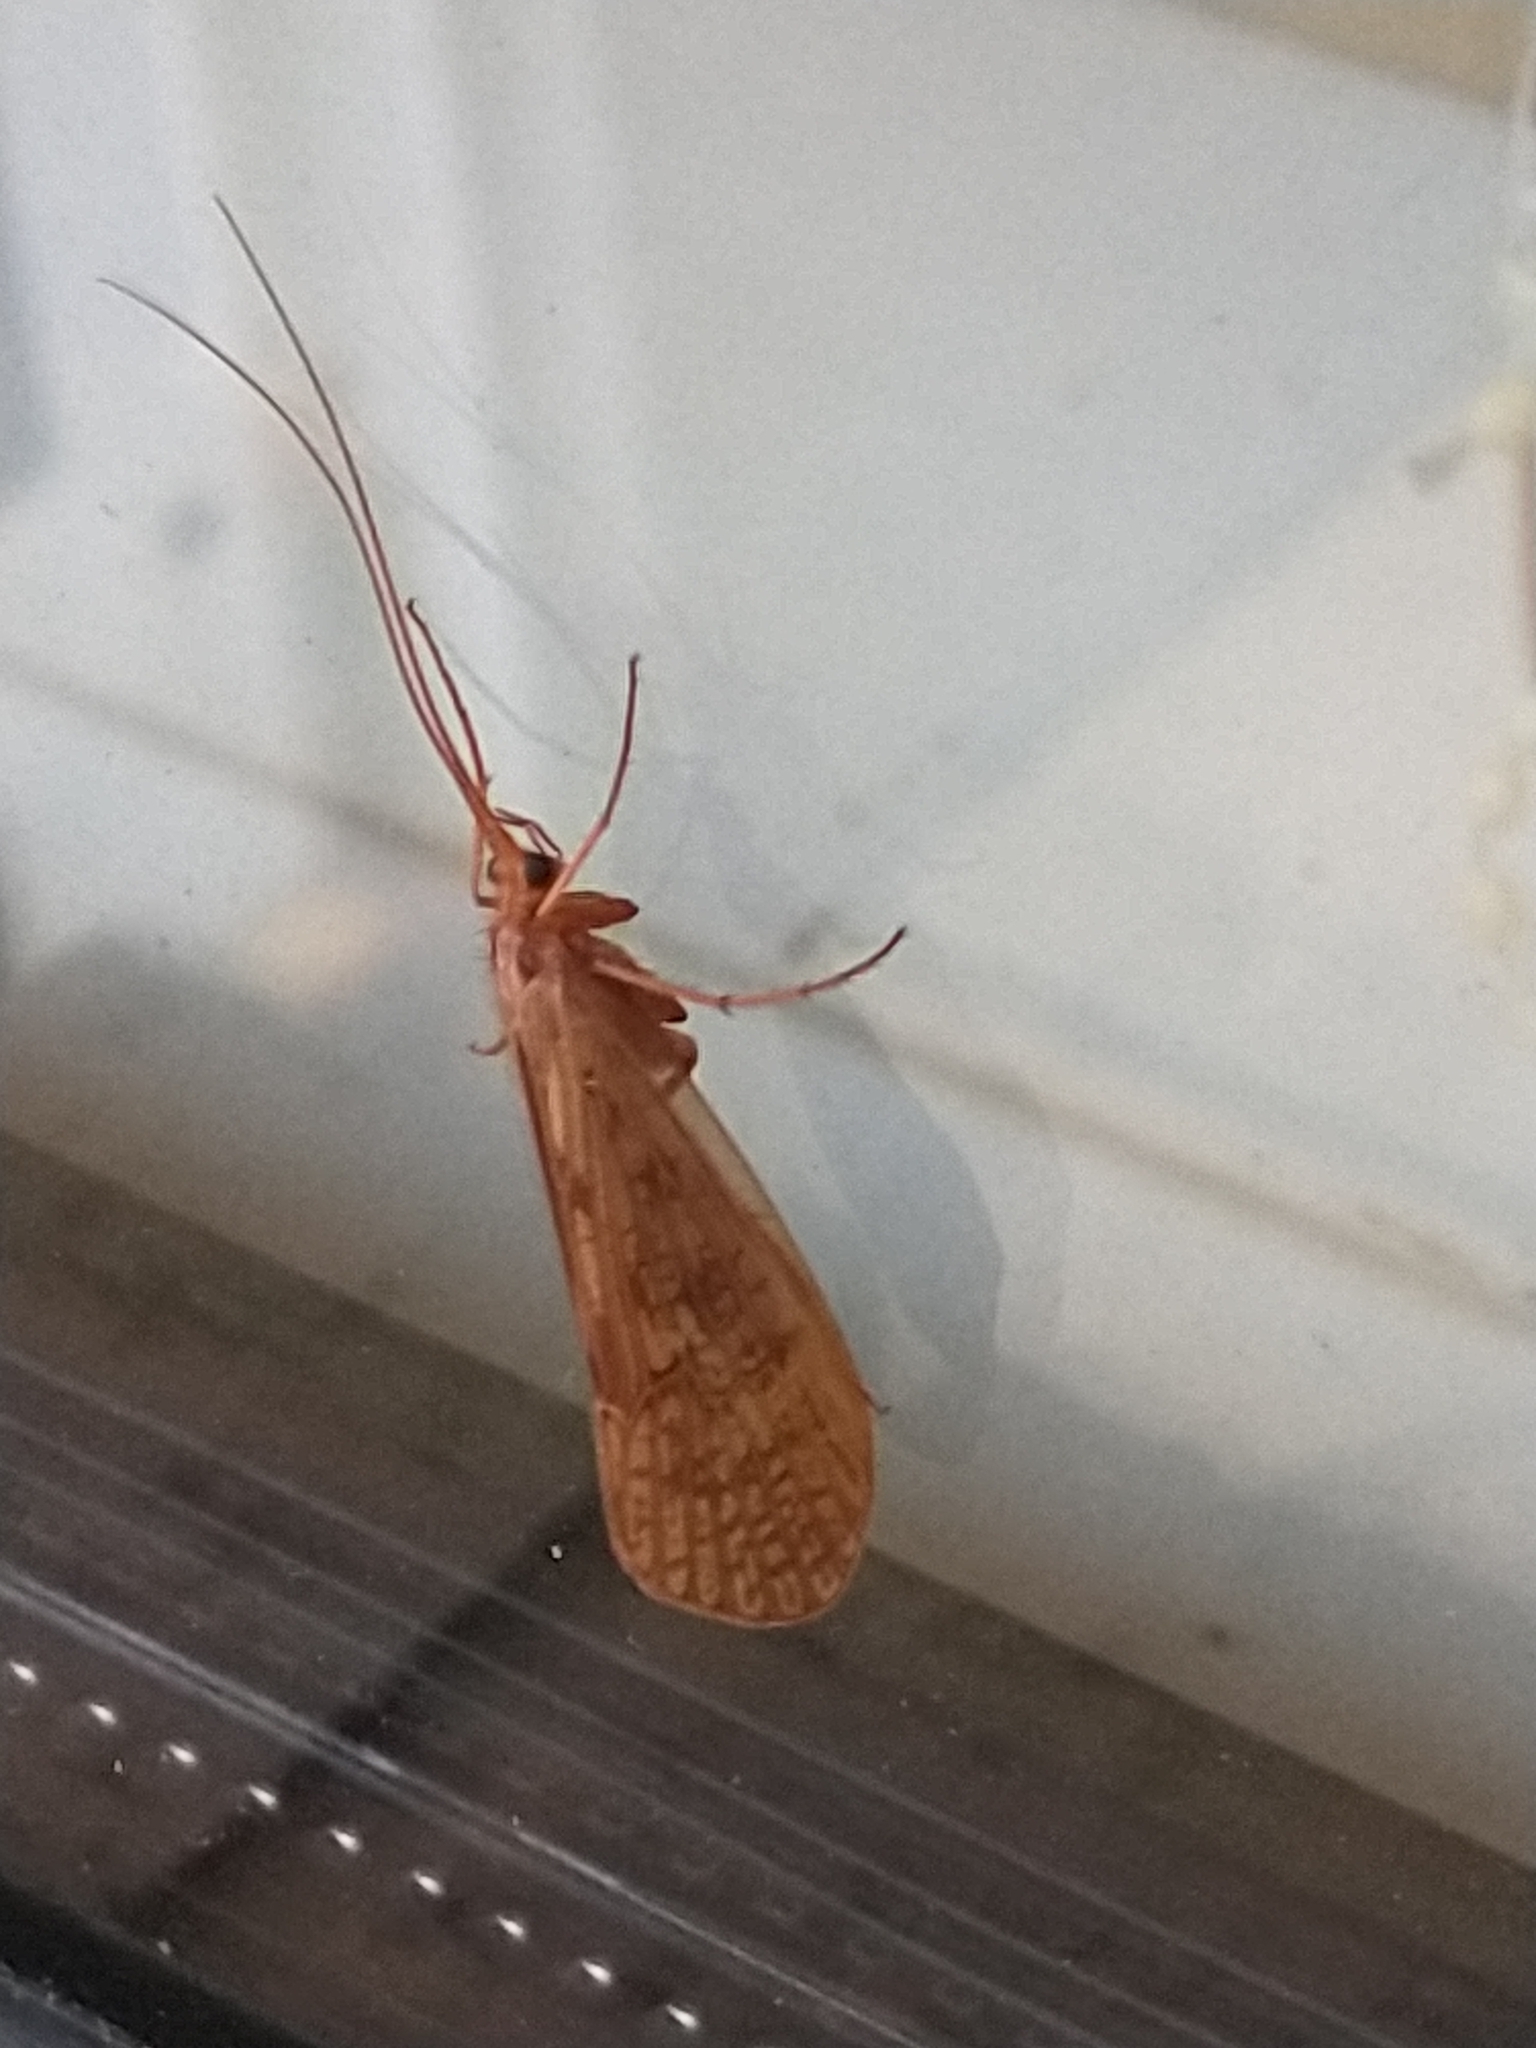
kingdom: Animalia
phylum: Arthropoda
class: Insecta
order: Trichoptera
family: Limnephilidae
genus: Halesus
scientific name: Halesus digitatus
